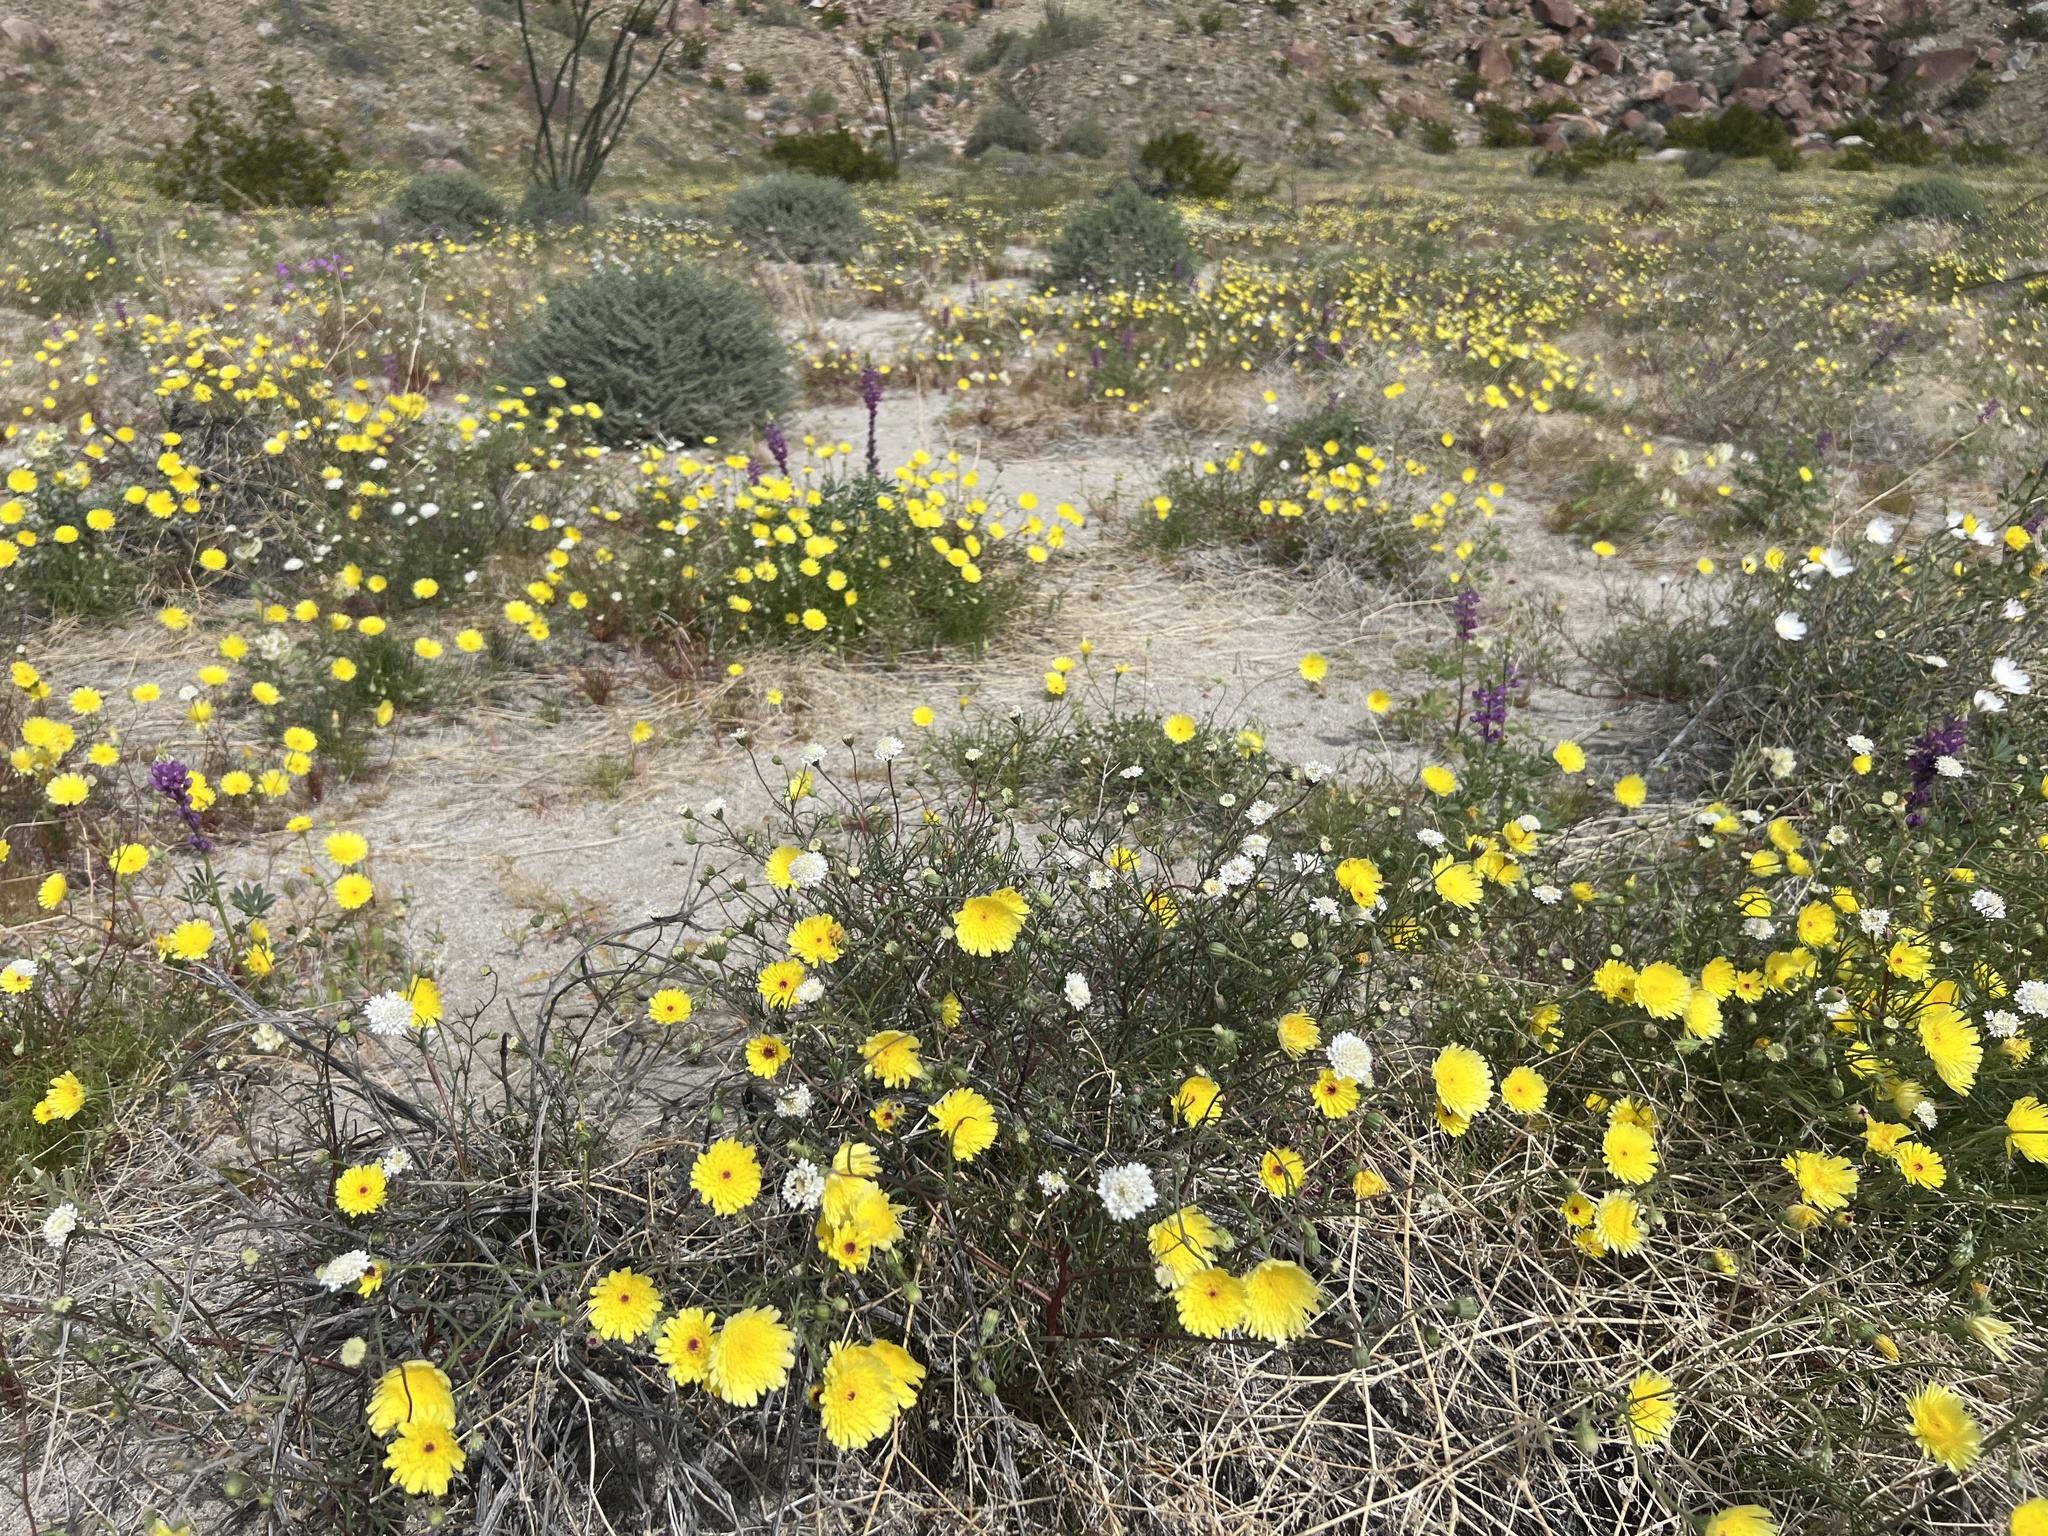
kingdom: Plantae
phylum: Tracheophyta
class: Magnoliopsida
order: Asterales
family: Asteraceae
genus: Malacothrix
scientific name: Malacothrix glabrata
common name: Smooth desert-dandelion
